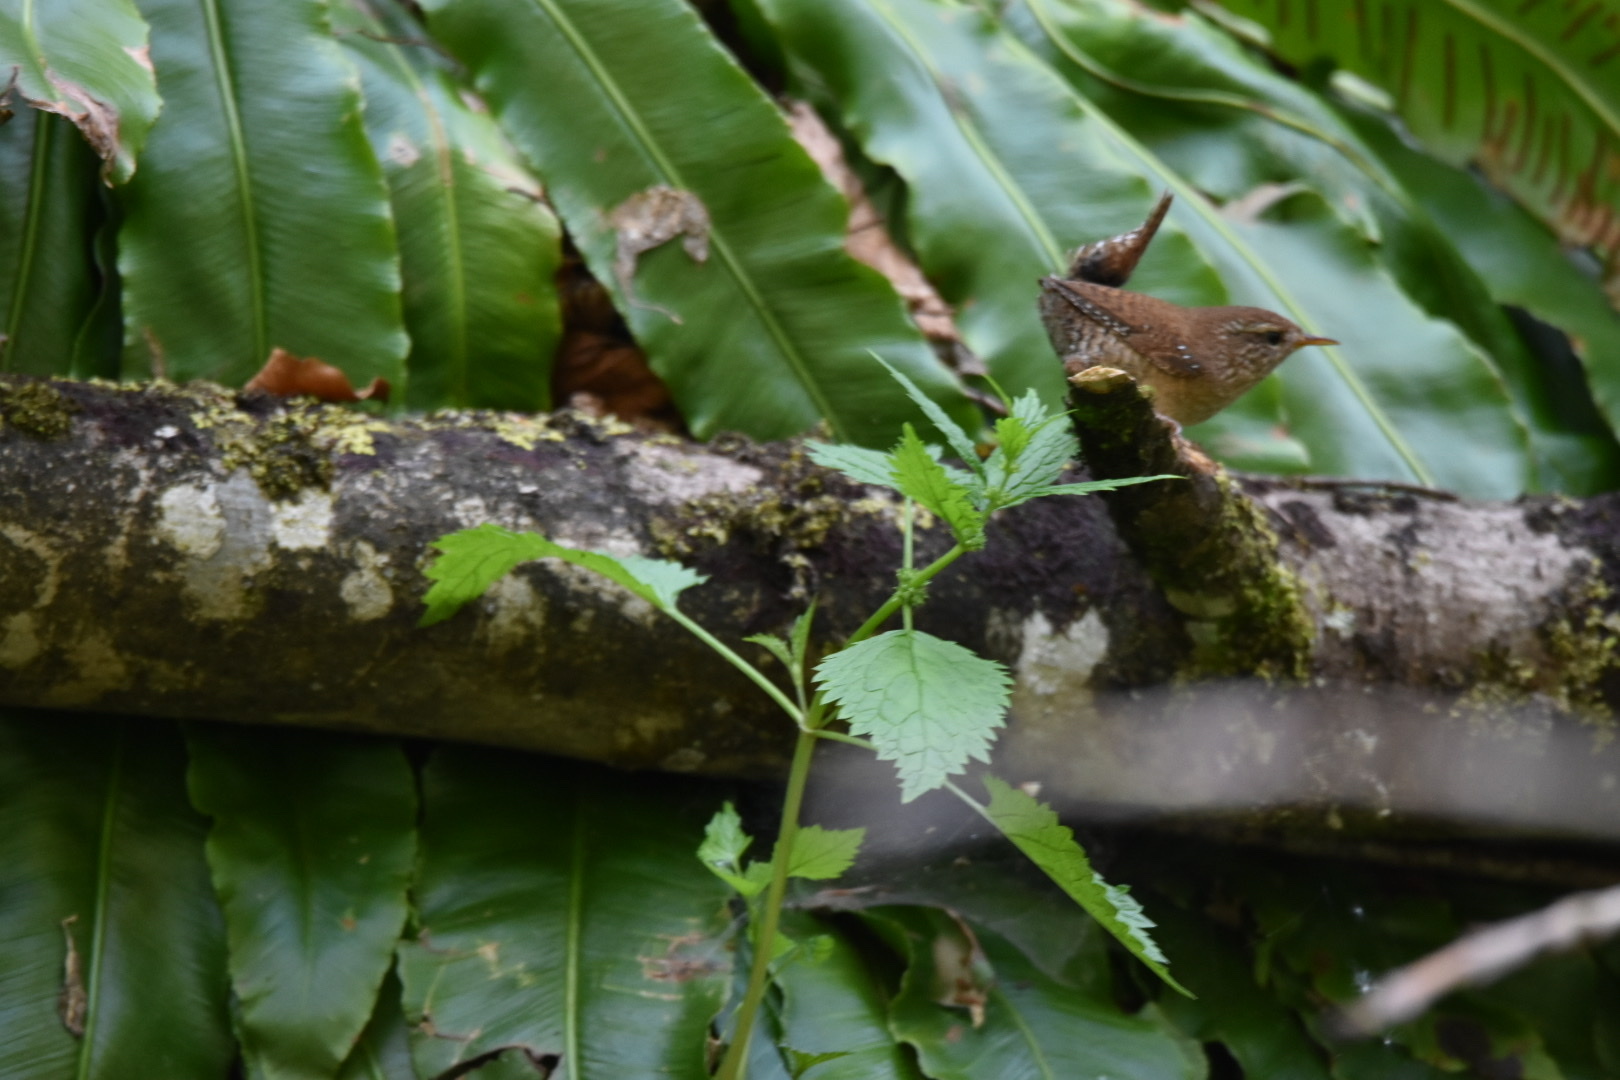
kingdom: Animalia
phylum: Chordata
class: Aves
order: Passeriformes
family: Troglodytidae
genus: Troglodytes
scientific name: Troglodytes troglodytes
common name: Eurasian wren
